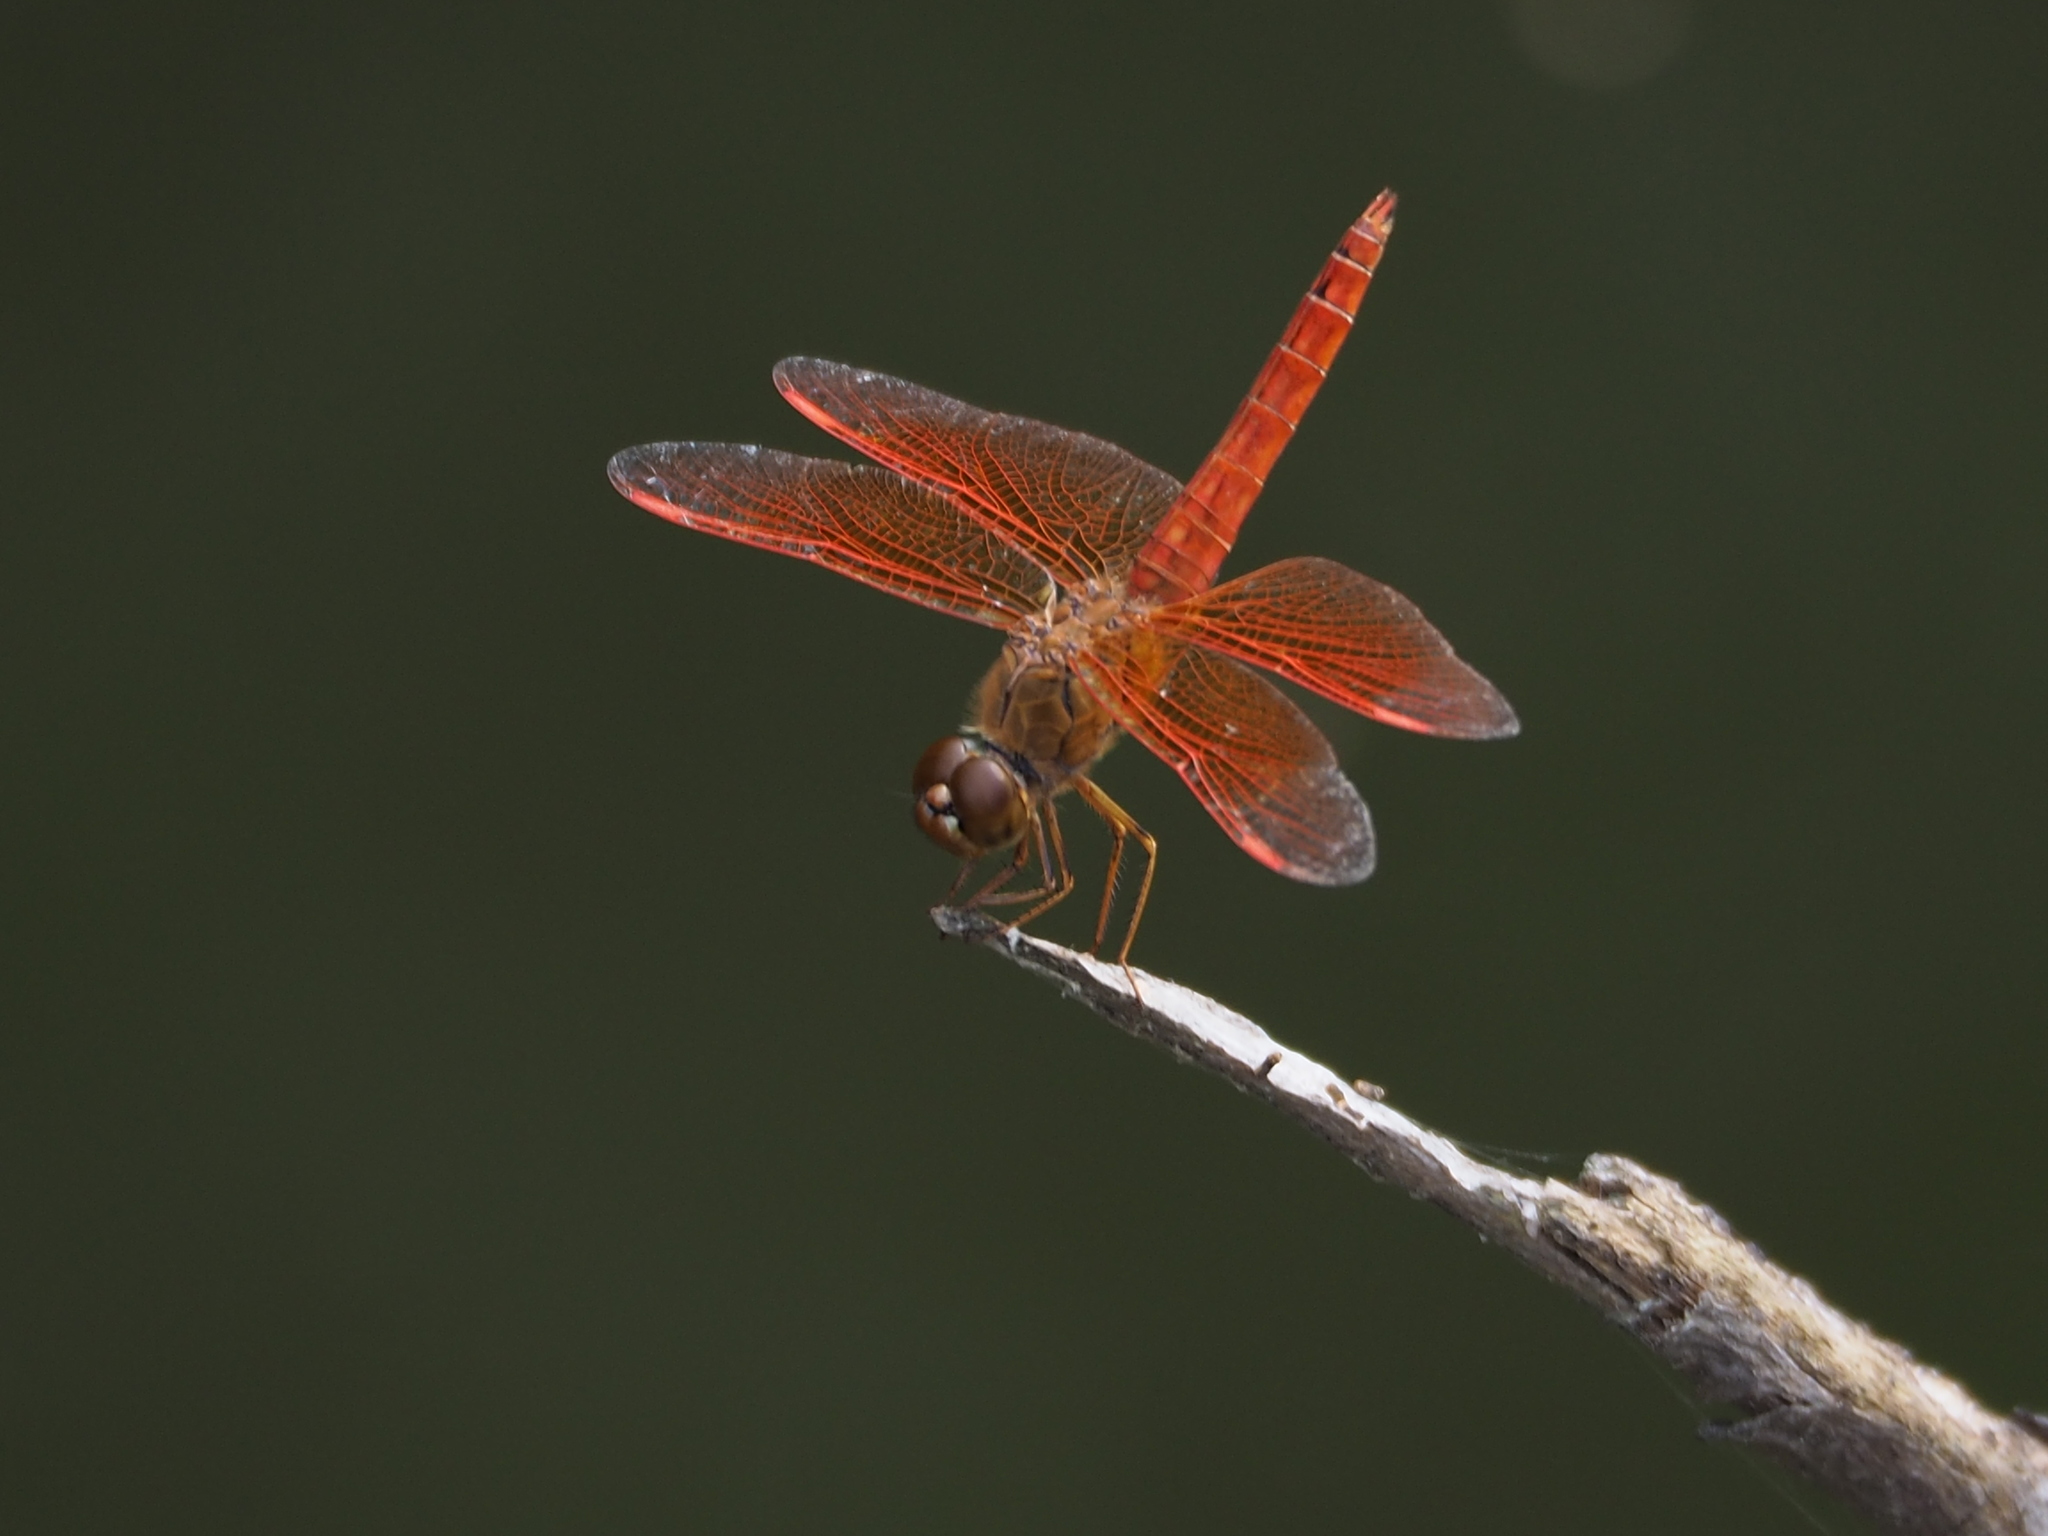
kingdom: Animalia
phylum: Arthropoda
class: Insecta
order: Odonata
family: Libellulidae
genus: Brachythemis
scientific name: Brachythemis contaminata
